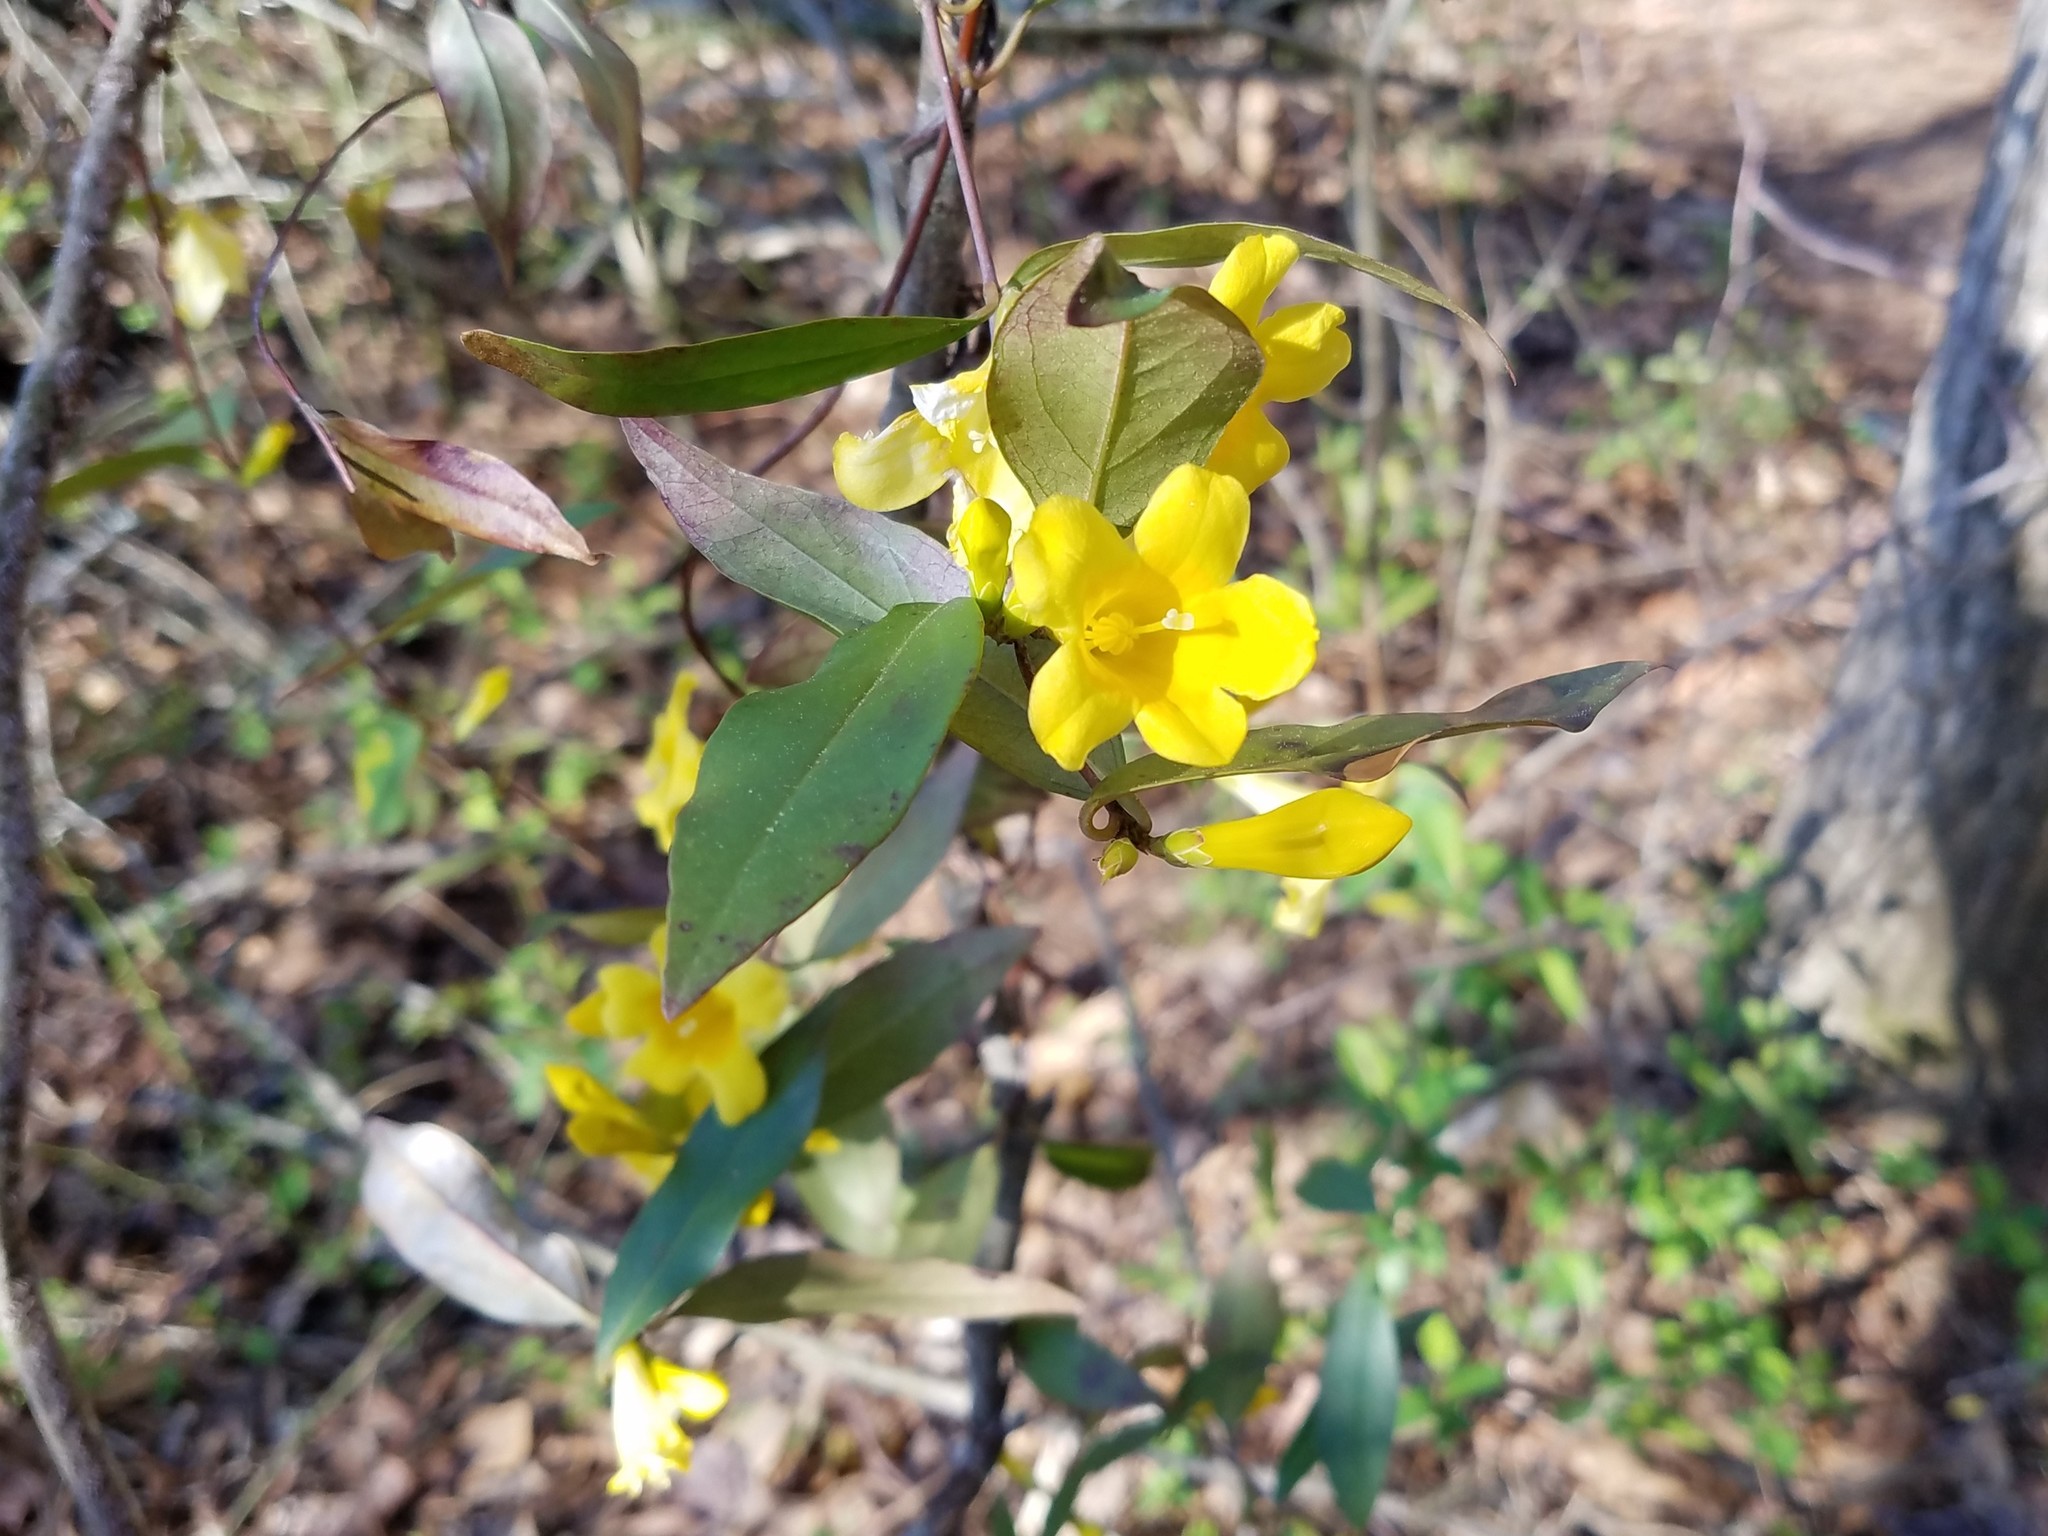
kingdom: Plantae
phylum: Tracheophyta
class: Magnoliopsida
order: Gentianales
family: Gelsemiaceae
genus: Gelsemium
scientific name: Gelsemium sempervirens
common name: Carolina-jasmine
